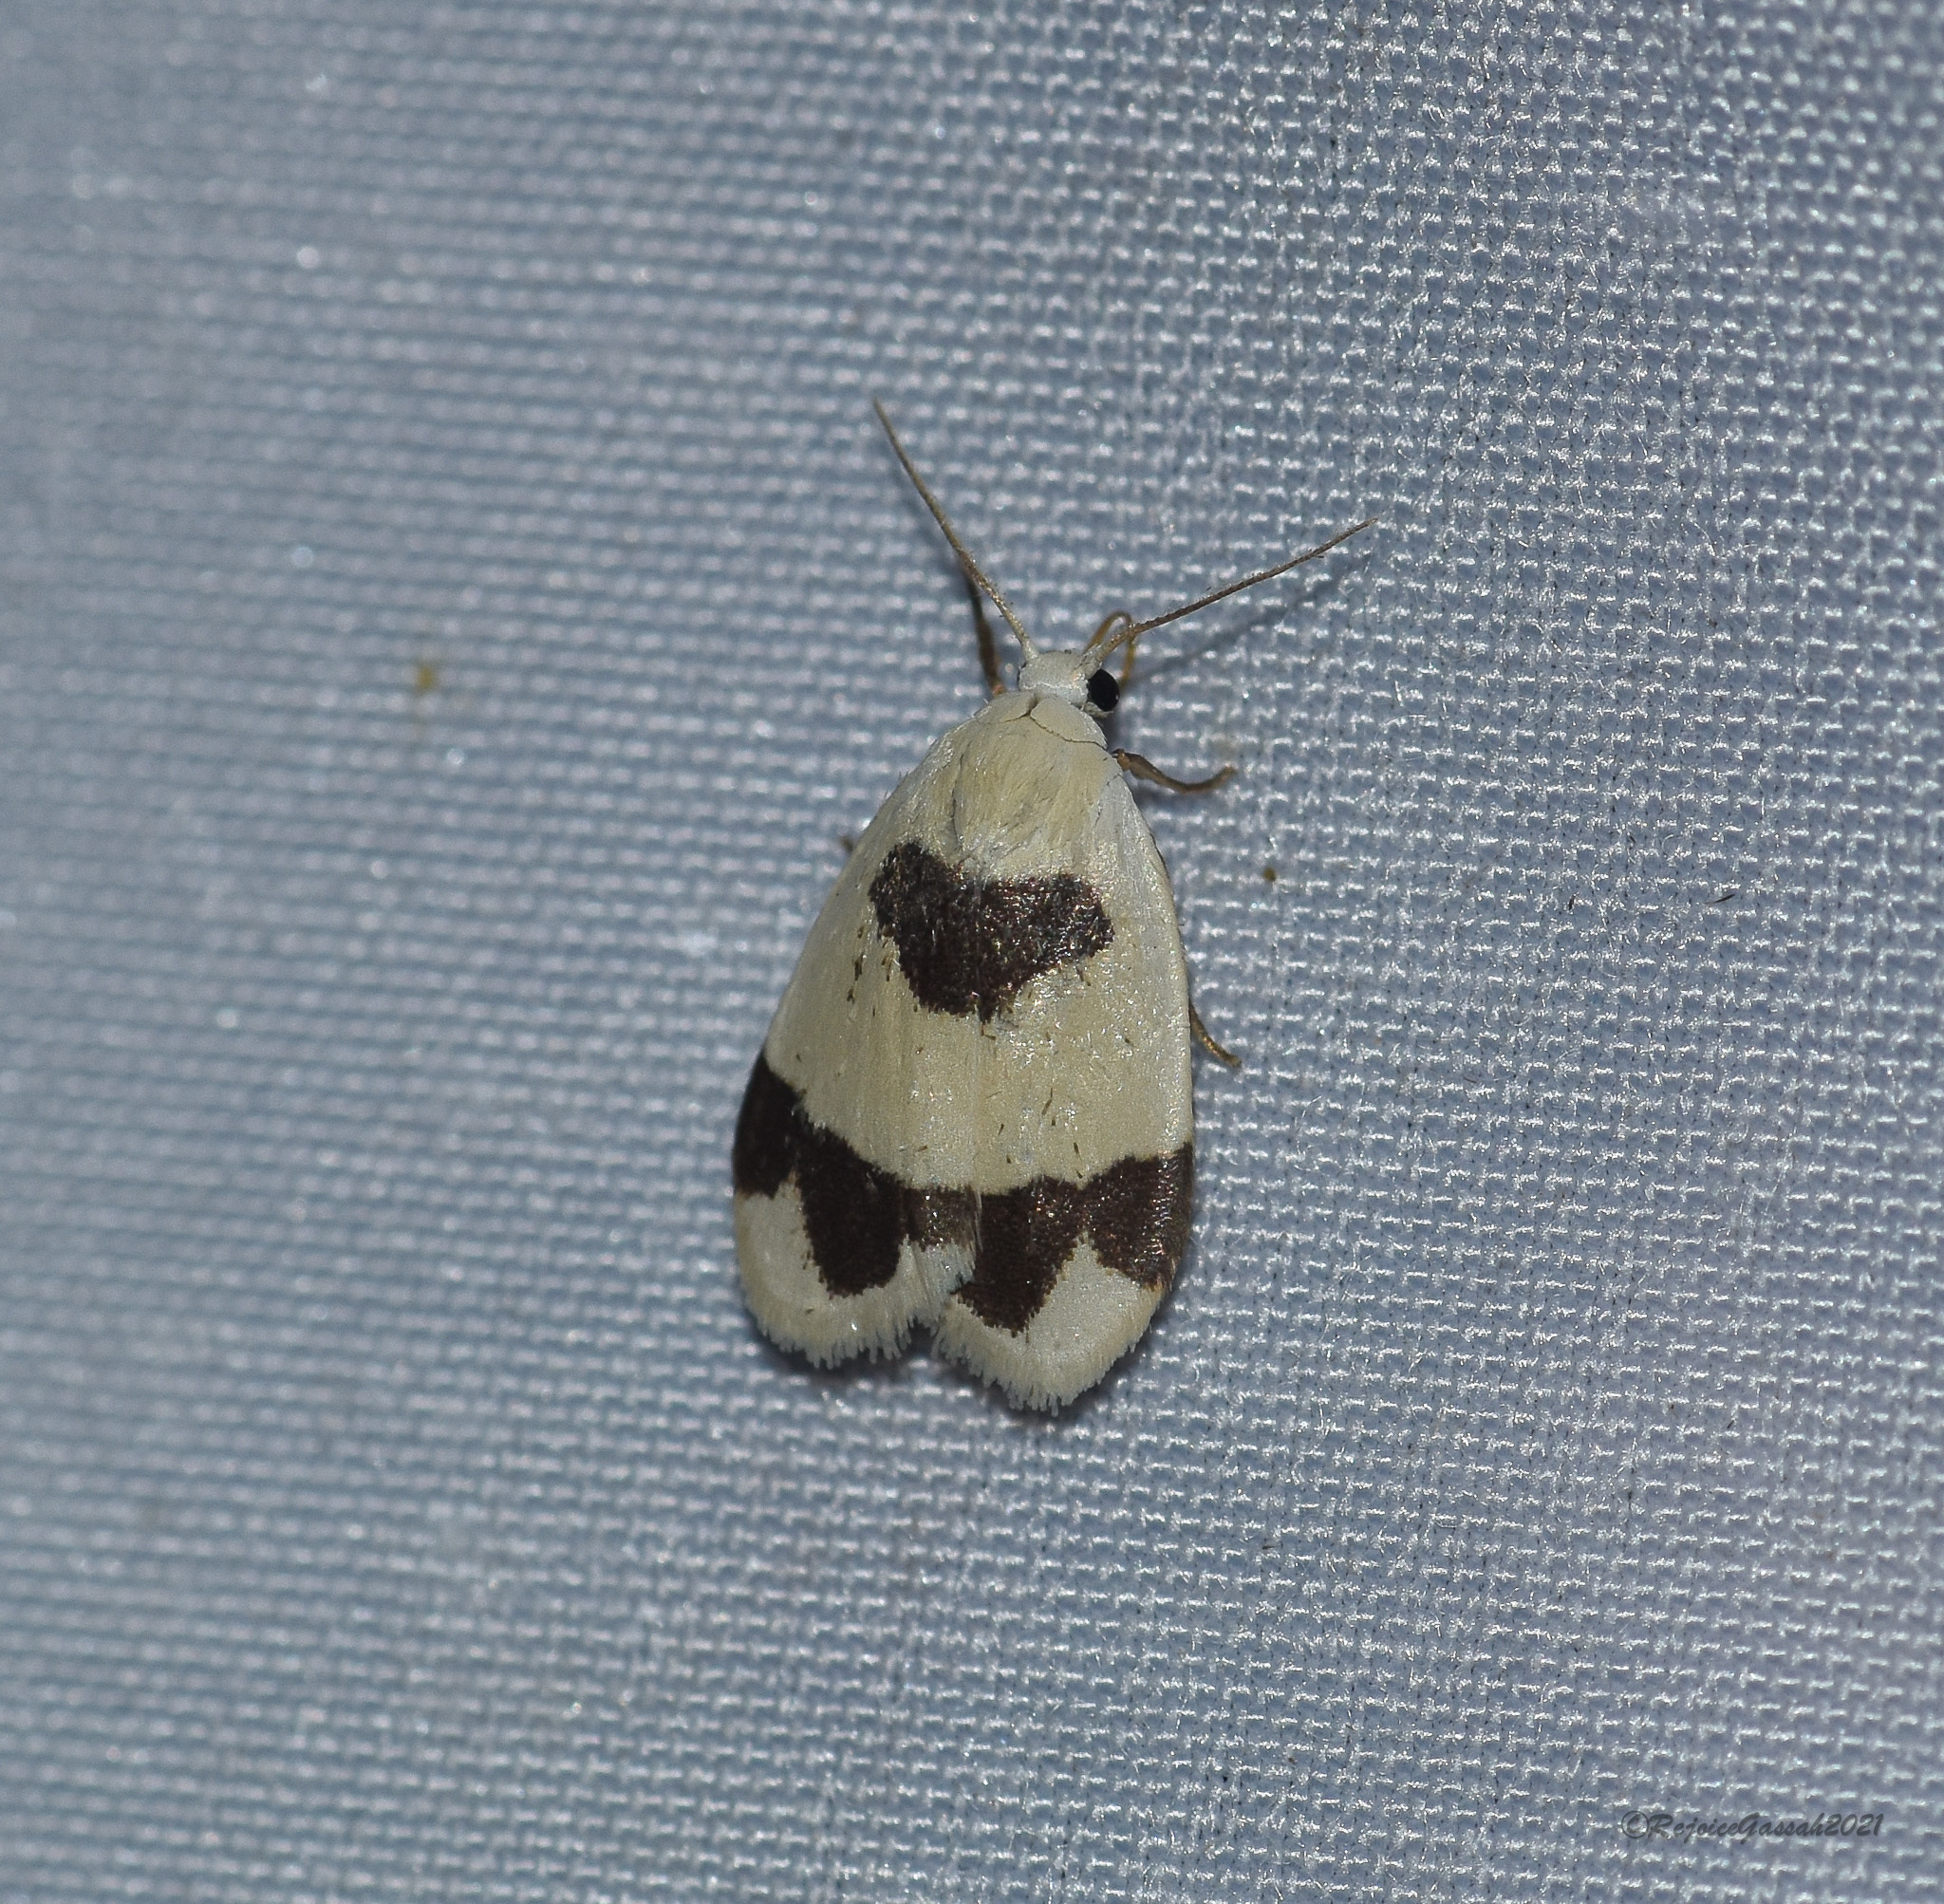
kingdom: Animalia
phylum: Arthropoda
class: Insecta
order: Lepidoptera
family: Erebidae
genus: Garudinia
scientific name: Garudinia latana
